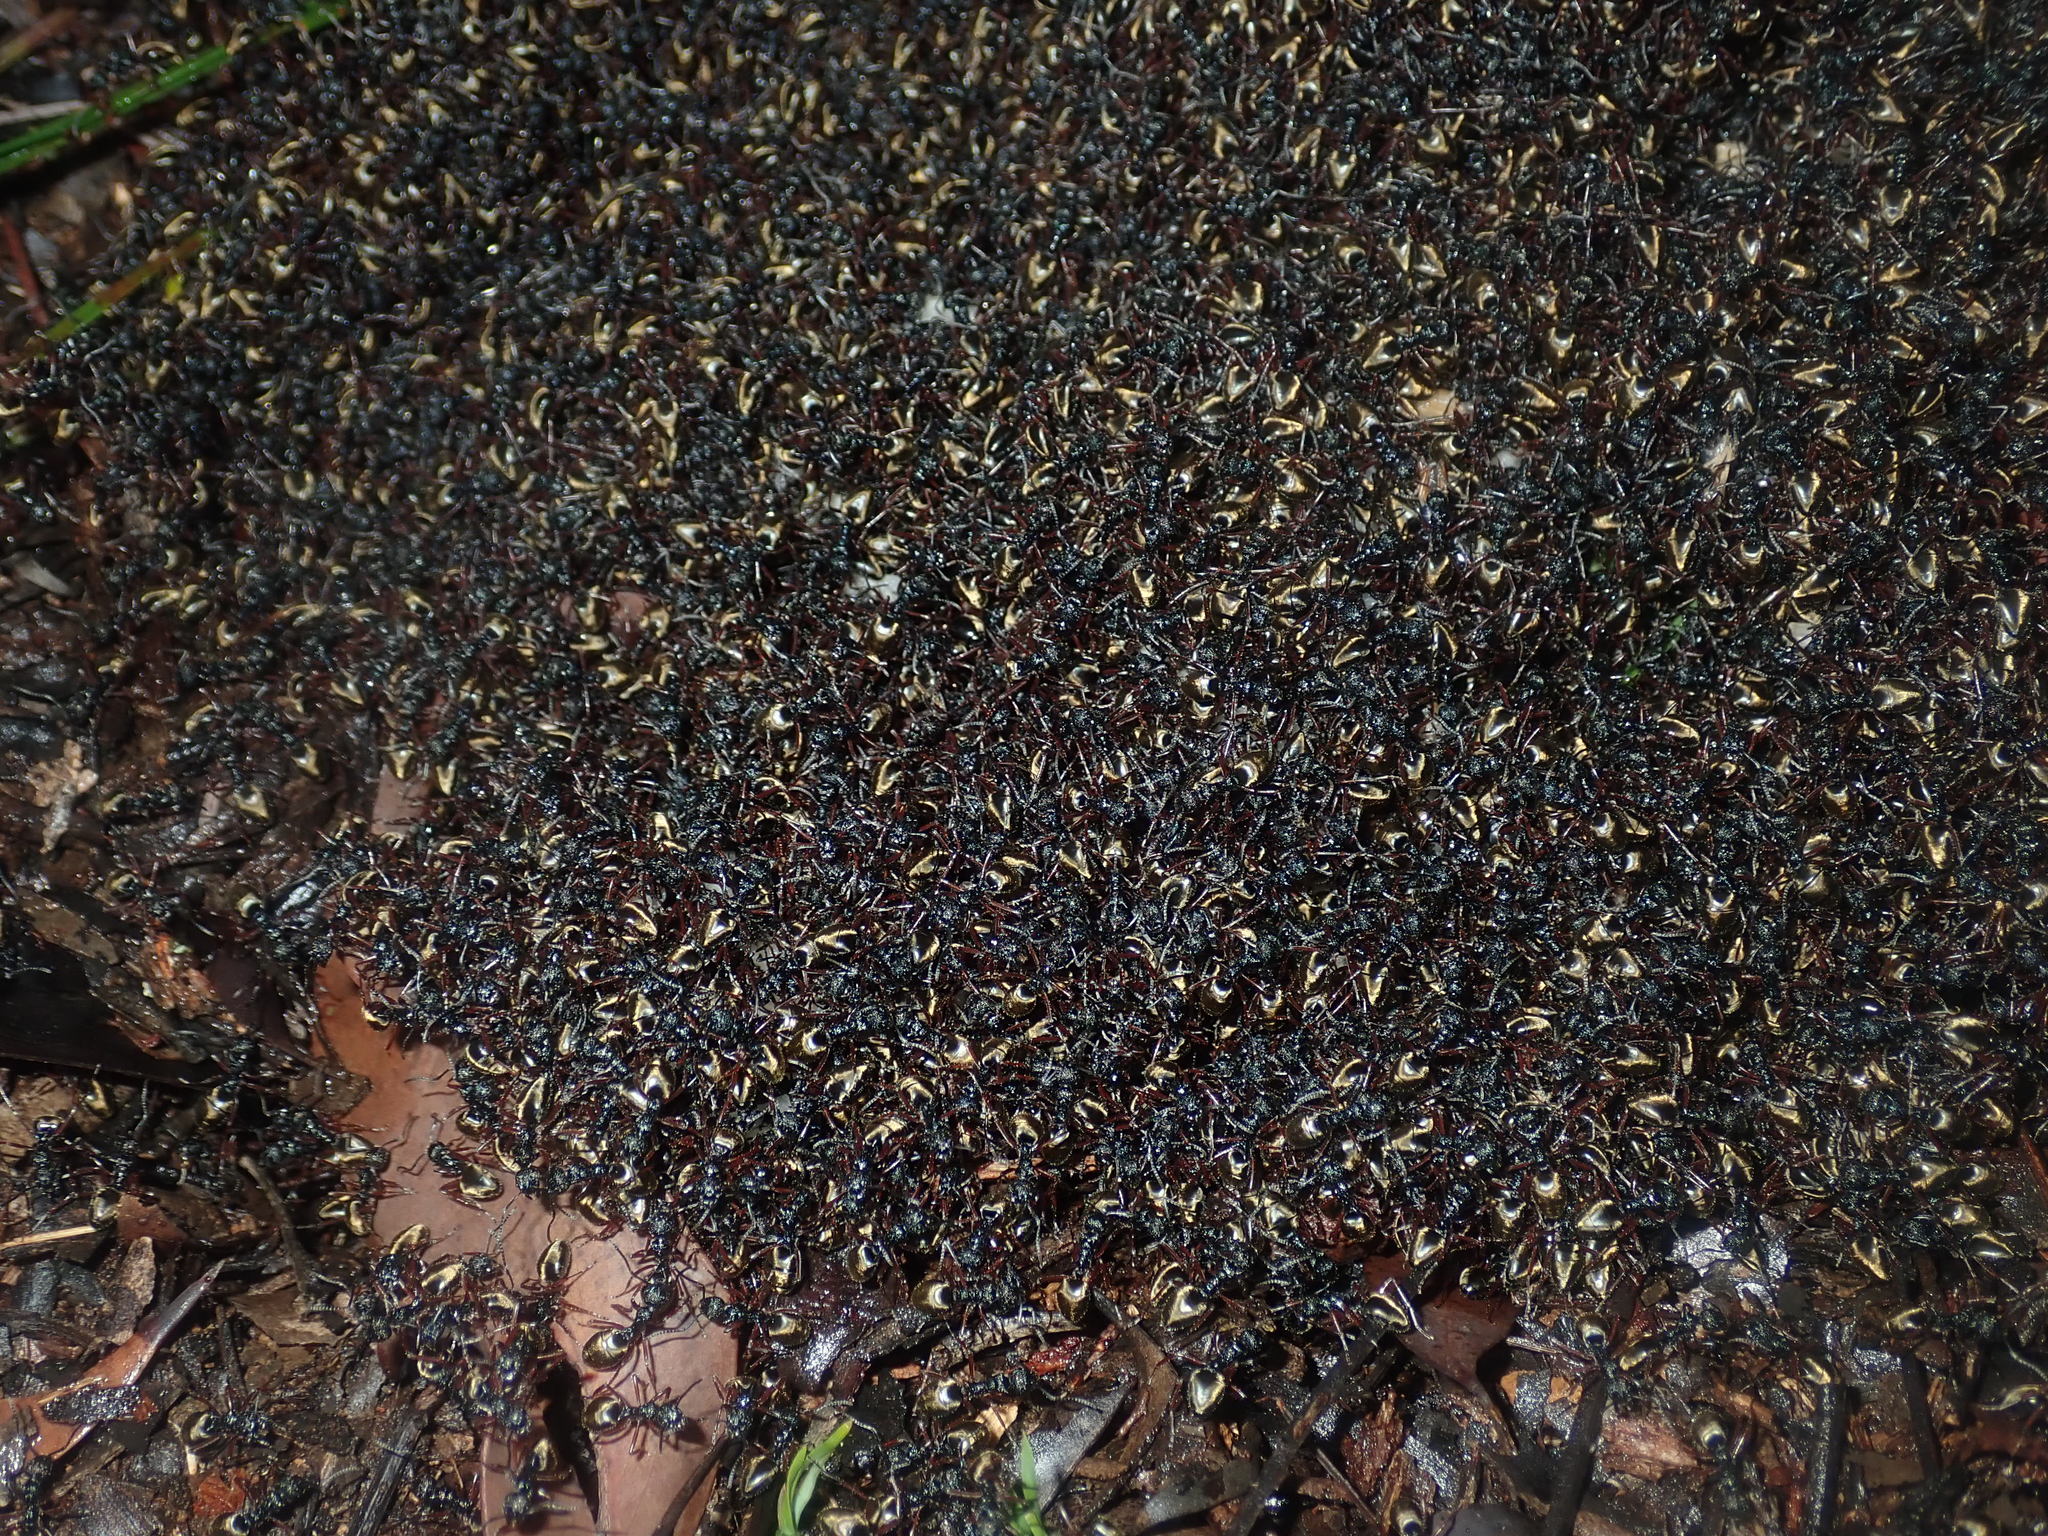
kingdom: Animalia
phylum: Arthropoda
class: Insecta
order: Hymenoptera
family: Formicidae
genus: Dolichoderus
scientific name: Dolichoderus doriae
